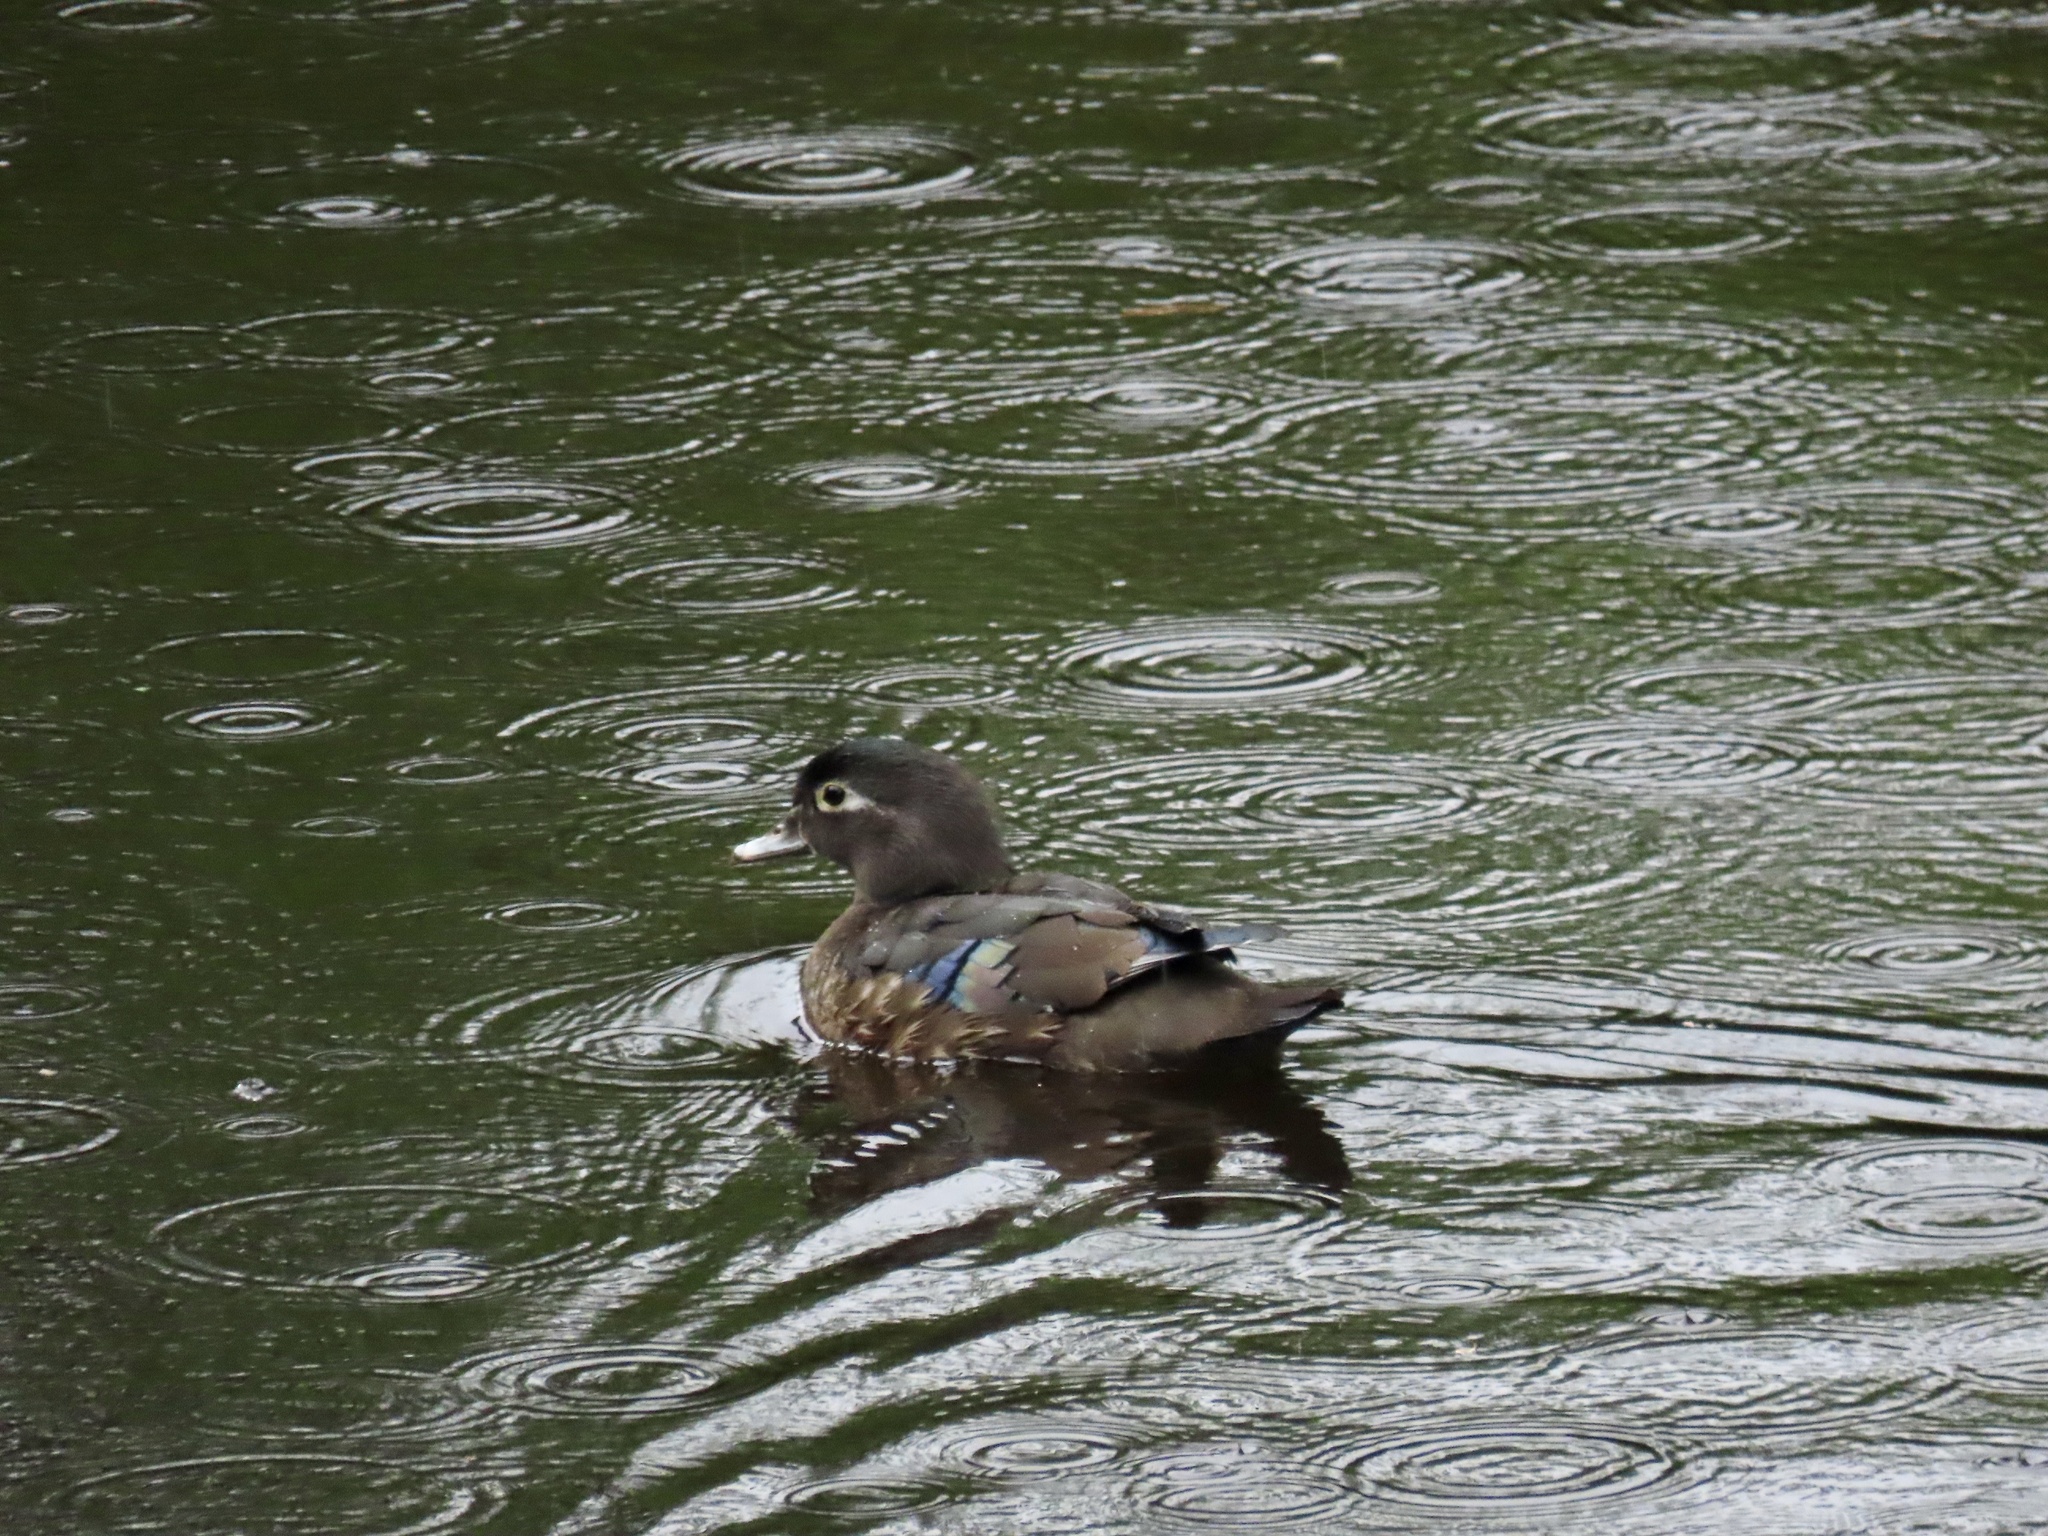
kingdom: Animalia
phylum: Chordata
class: Aves
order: Anseriformes
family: Anatidae
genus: Aix
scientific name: Aix sponsa
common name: Wood duck
